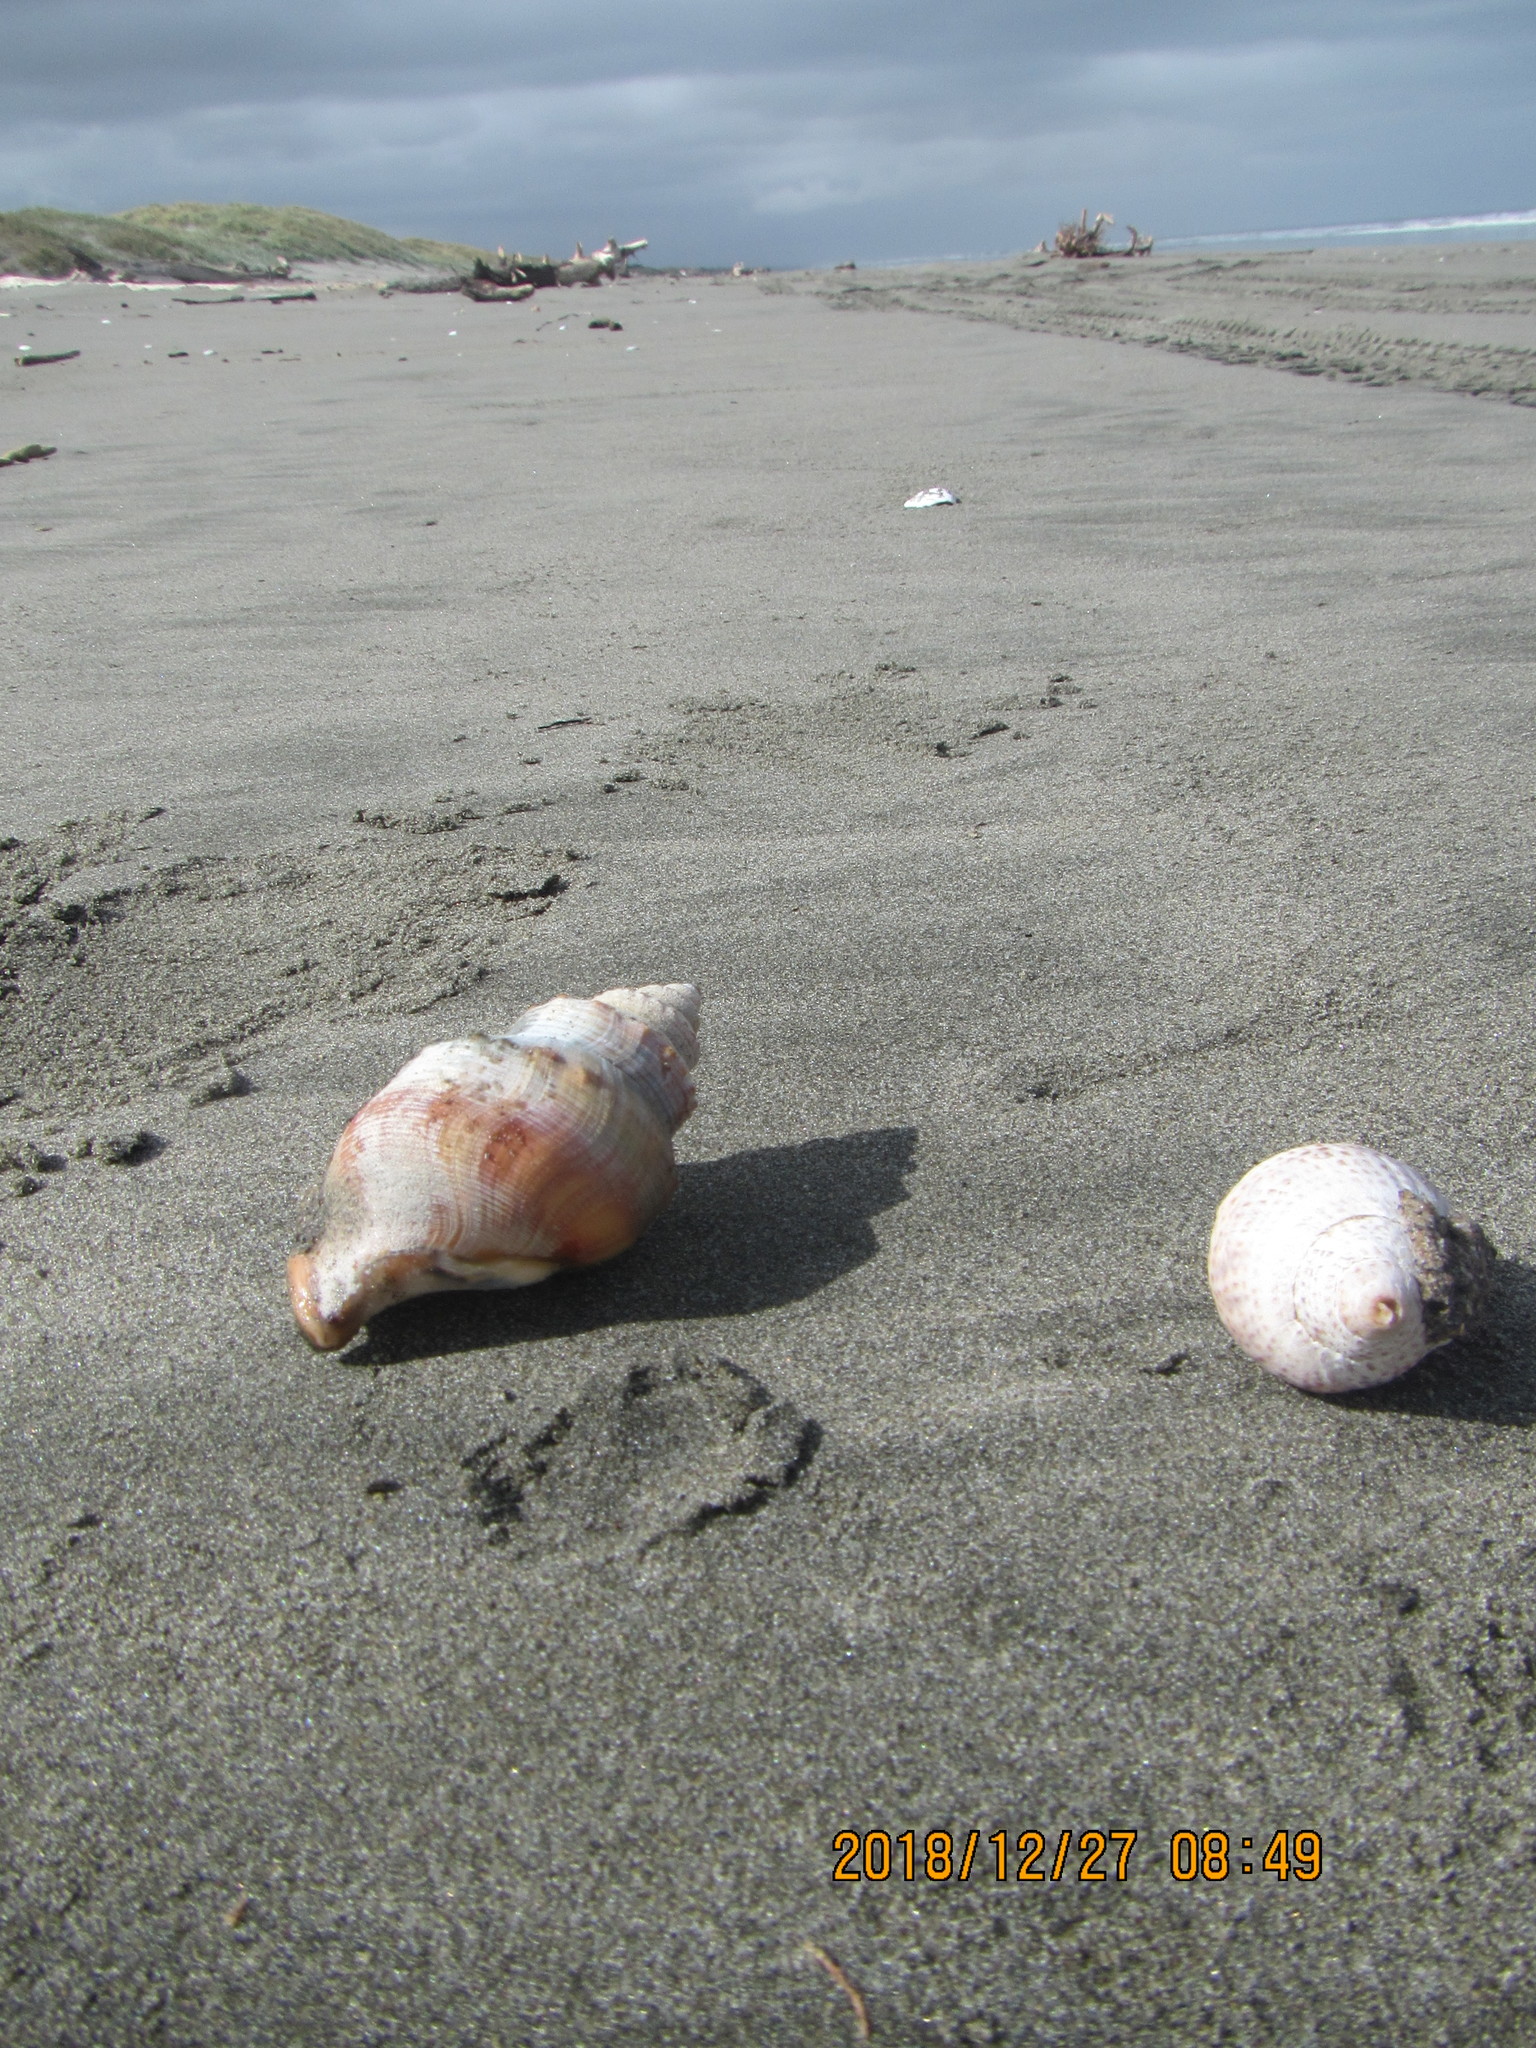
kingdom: Animalia
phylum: Mollusca
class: Gastropoda
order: Littorinimorpha
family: Struthiolariidae
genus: Struthiolaria
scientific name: Struthiolaria papulosa
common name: Large ostrich foot
